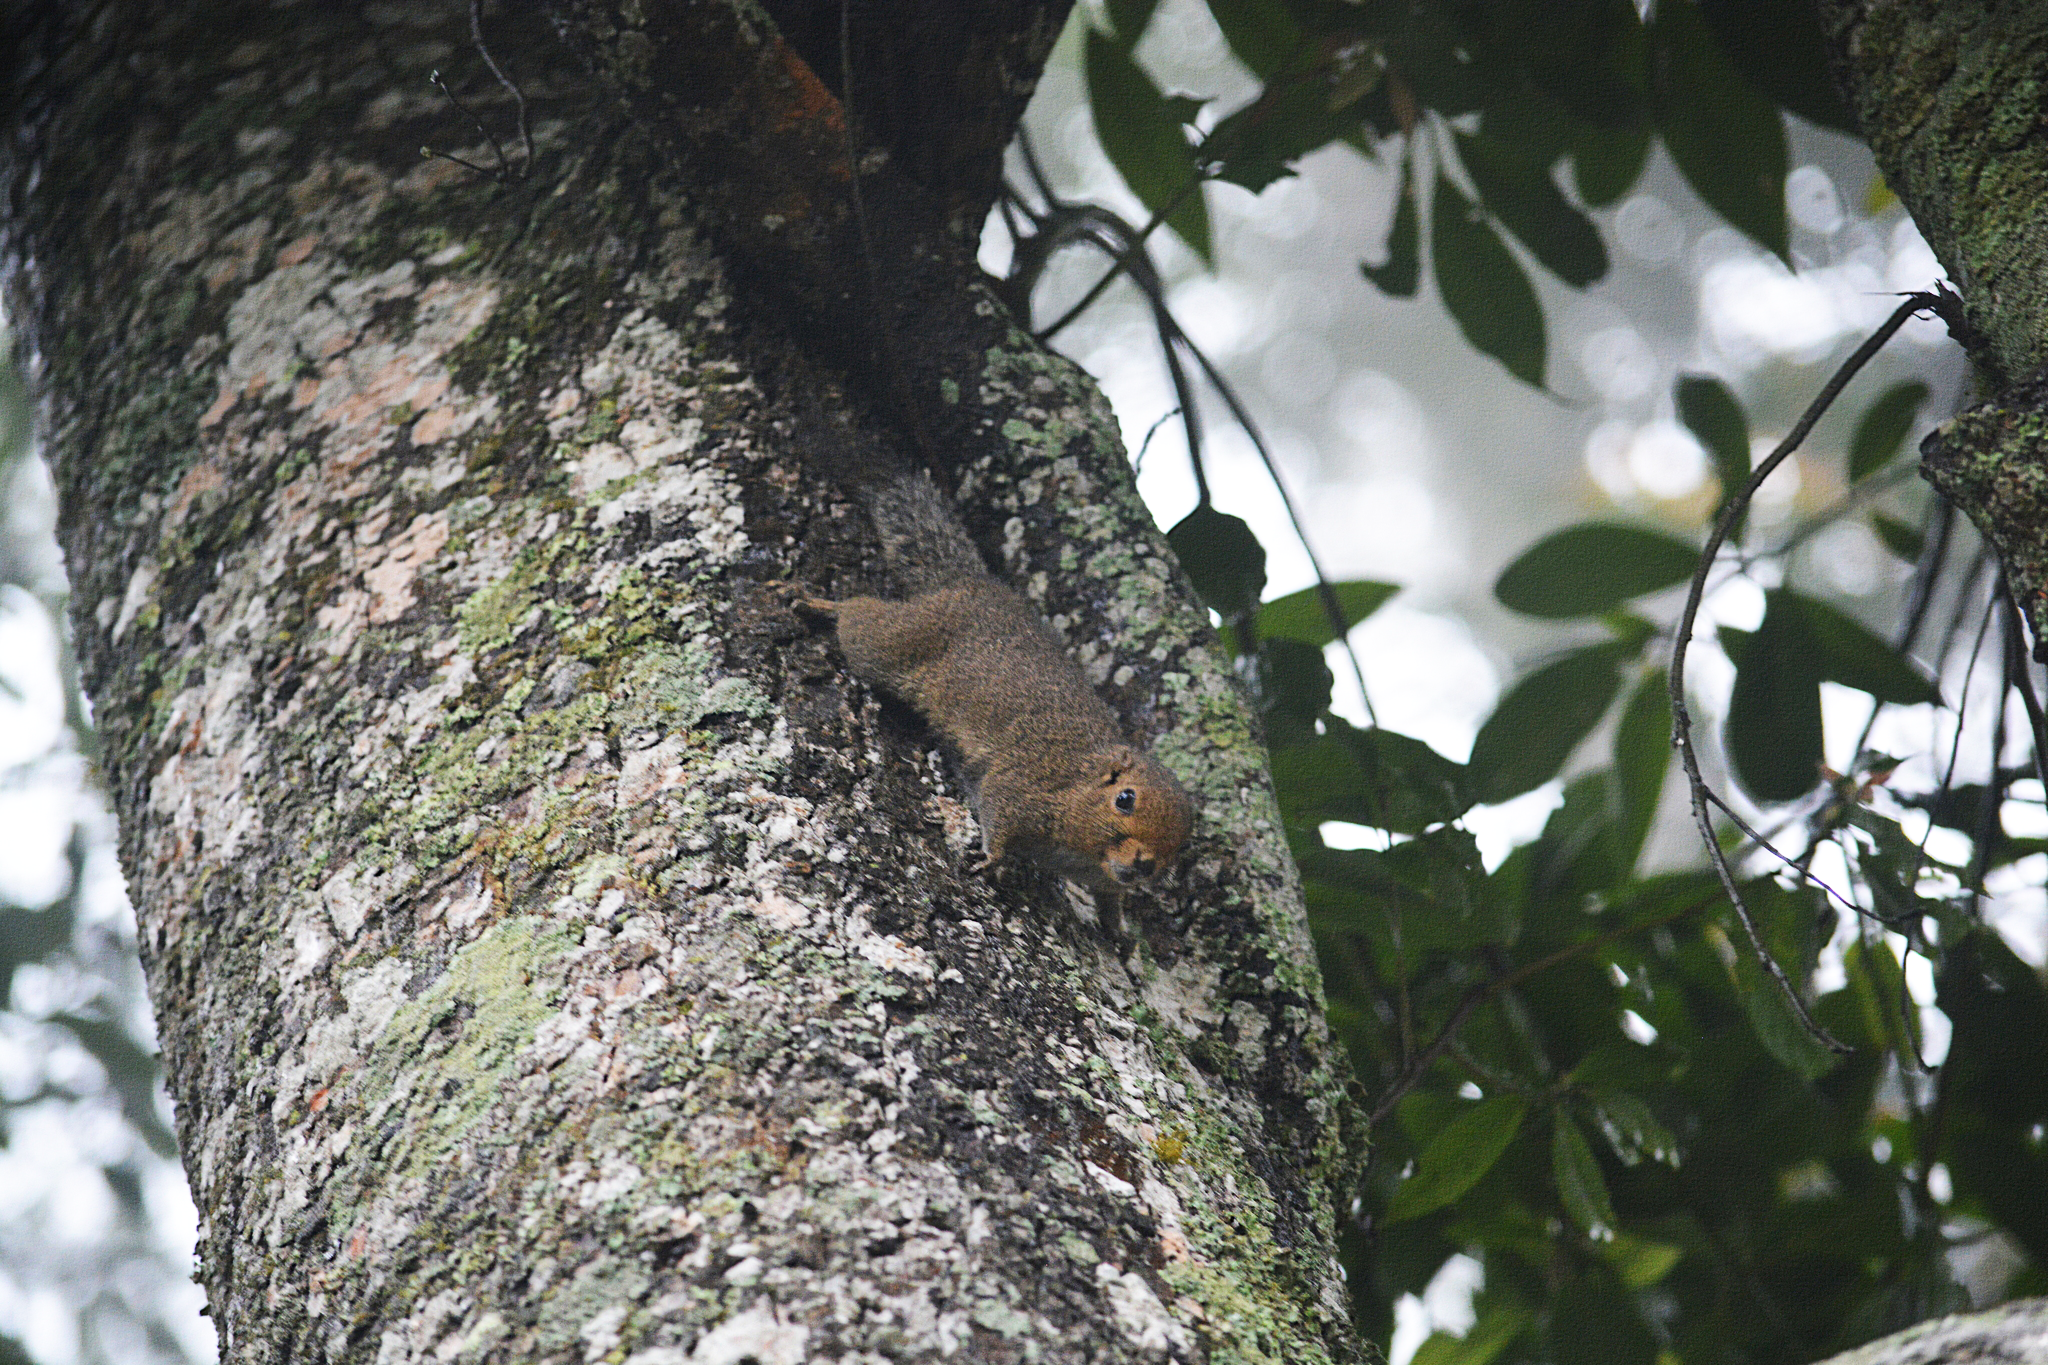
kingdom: Animalia
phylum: Chordata
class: Mammalia
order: Rodentia
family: Sciuridae
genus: Callosciurus
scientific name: Callosciurus nigrovittatus
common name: Black-striped squirrel
